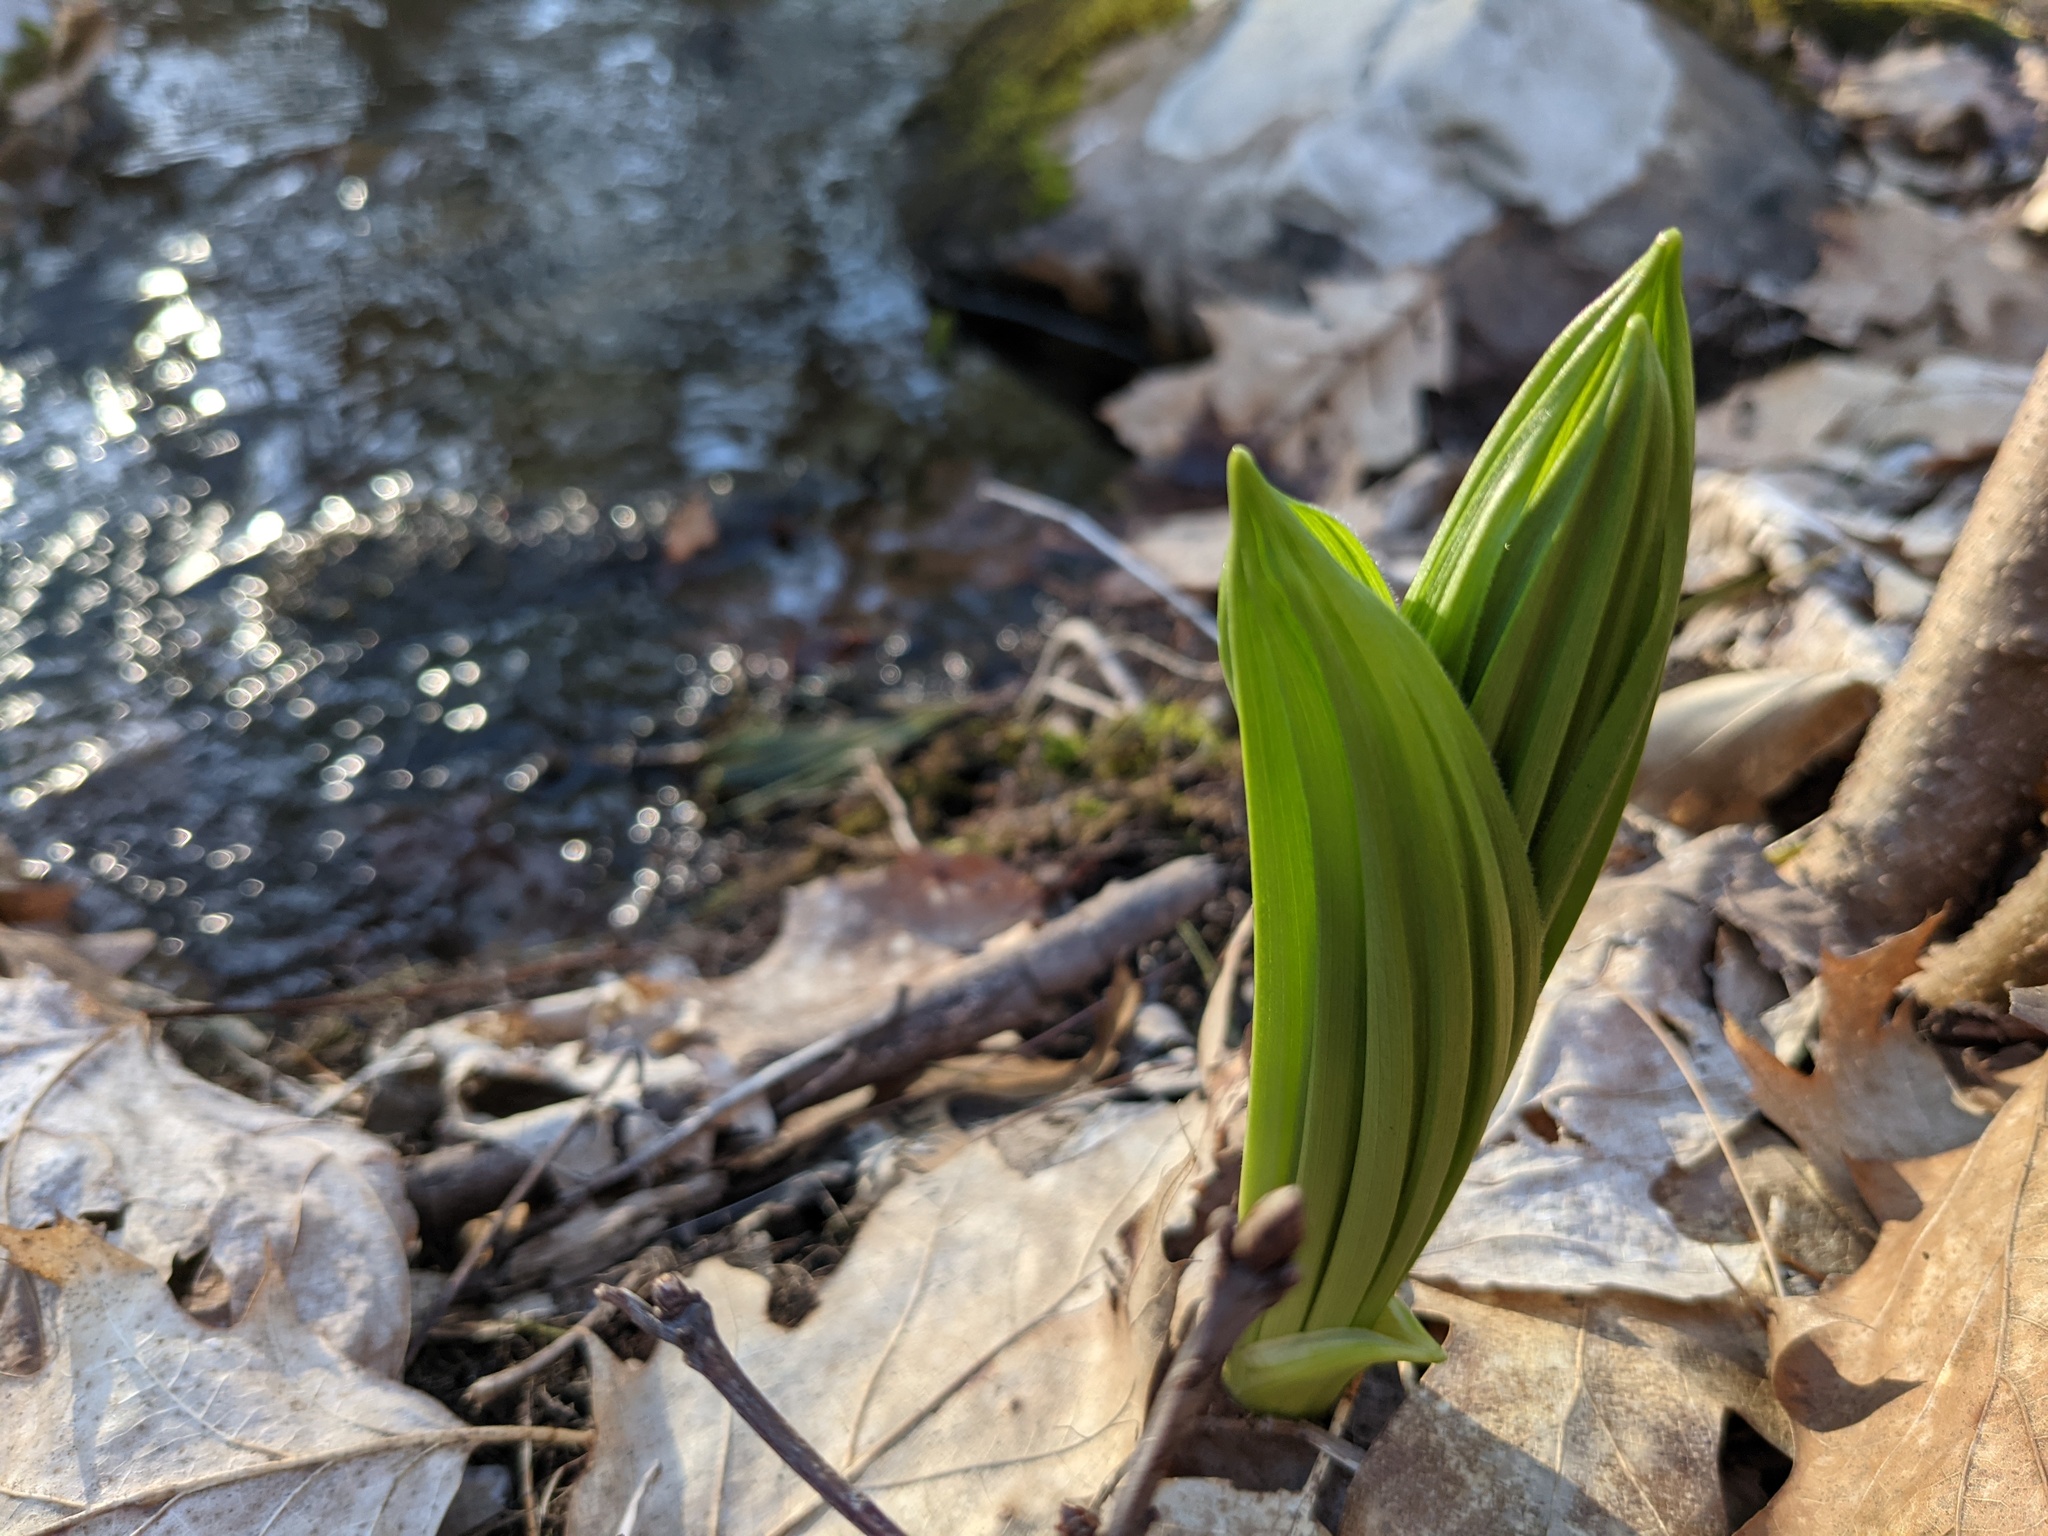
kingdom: Plantae
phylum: Tracheophyta
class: Liliopsida
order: Liliales
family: Melanthiaceae
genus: Veratrum
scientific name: Veratrum viride
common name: American false hellebore
